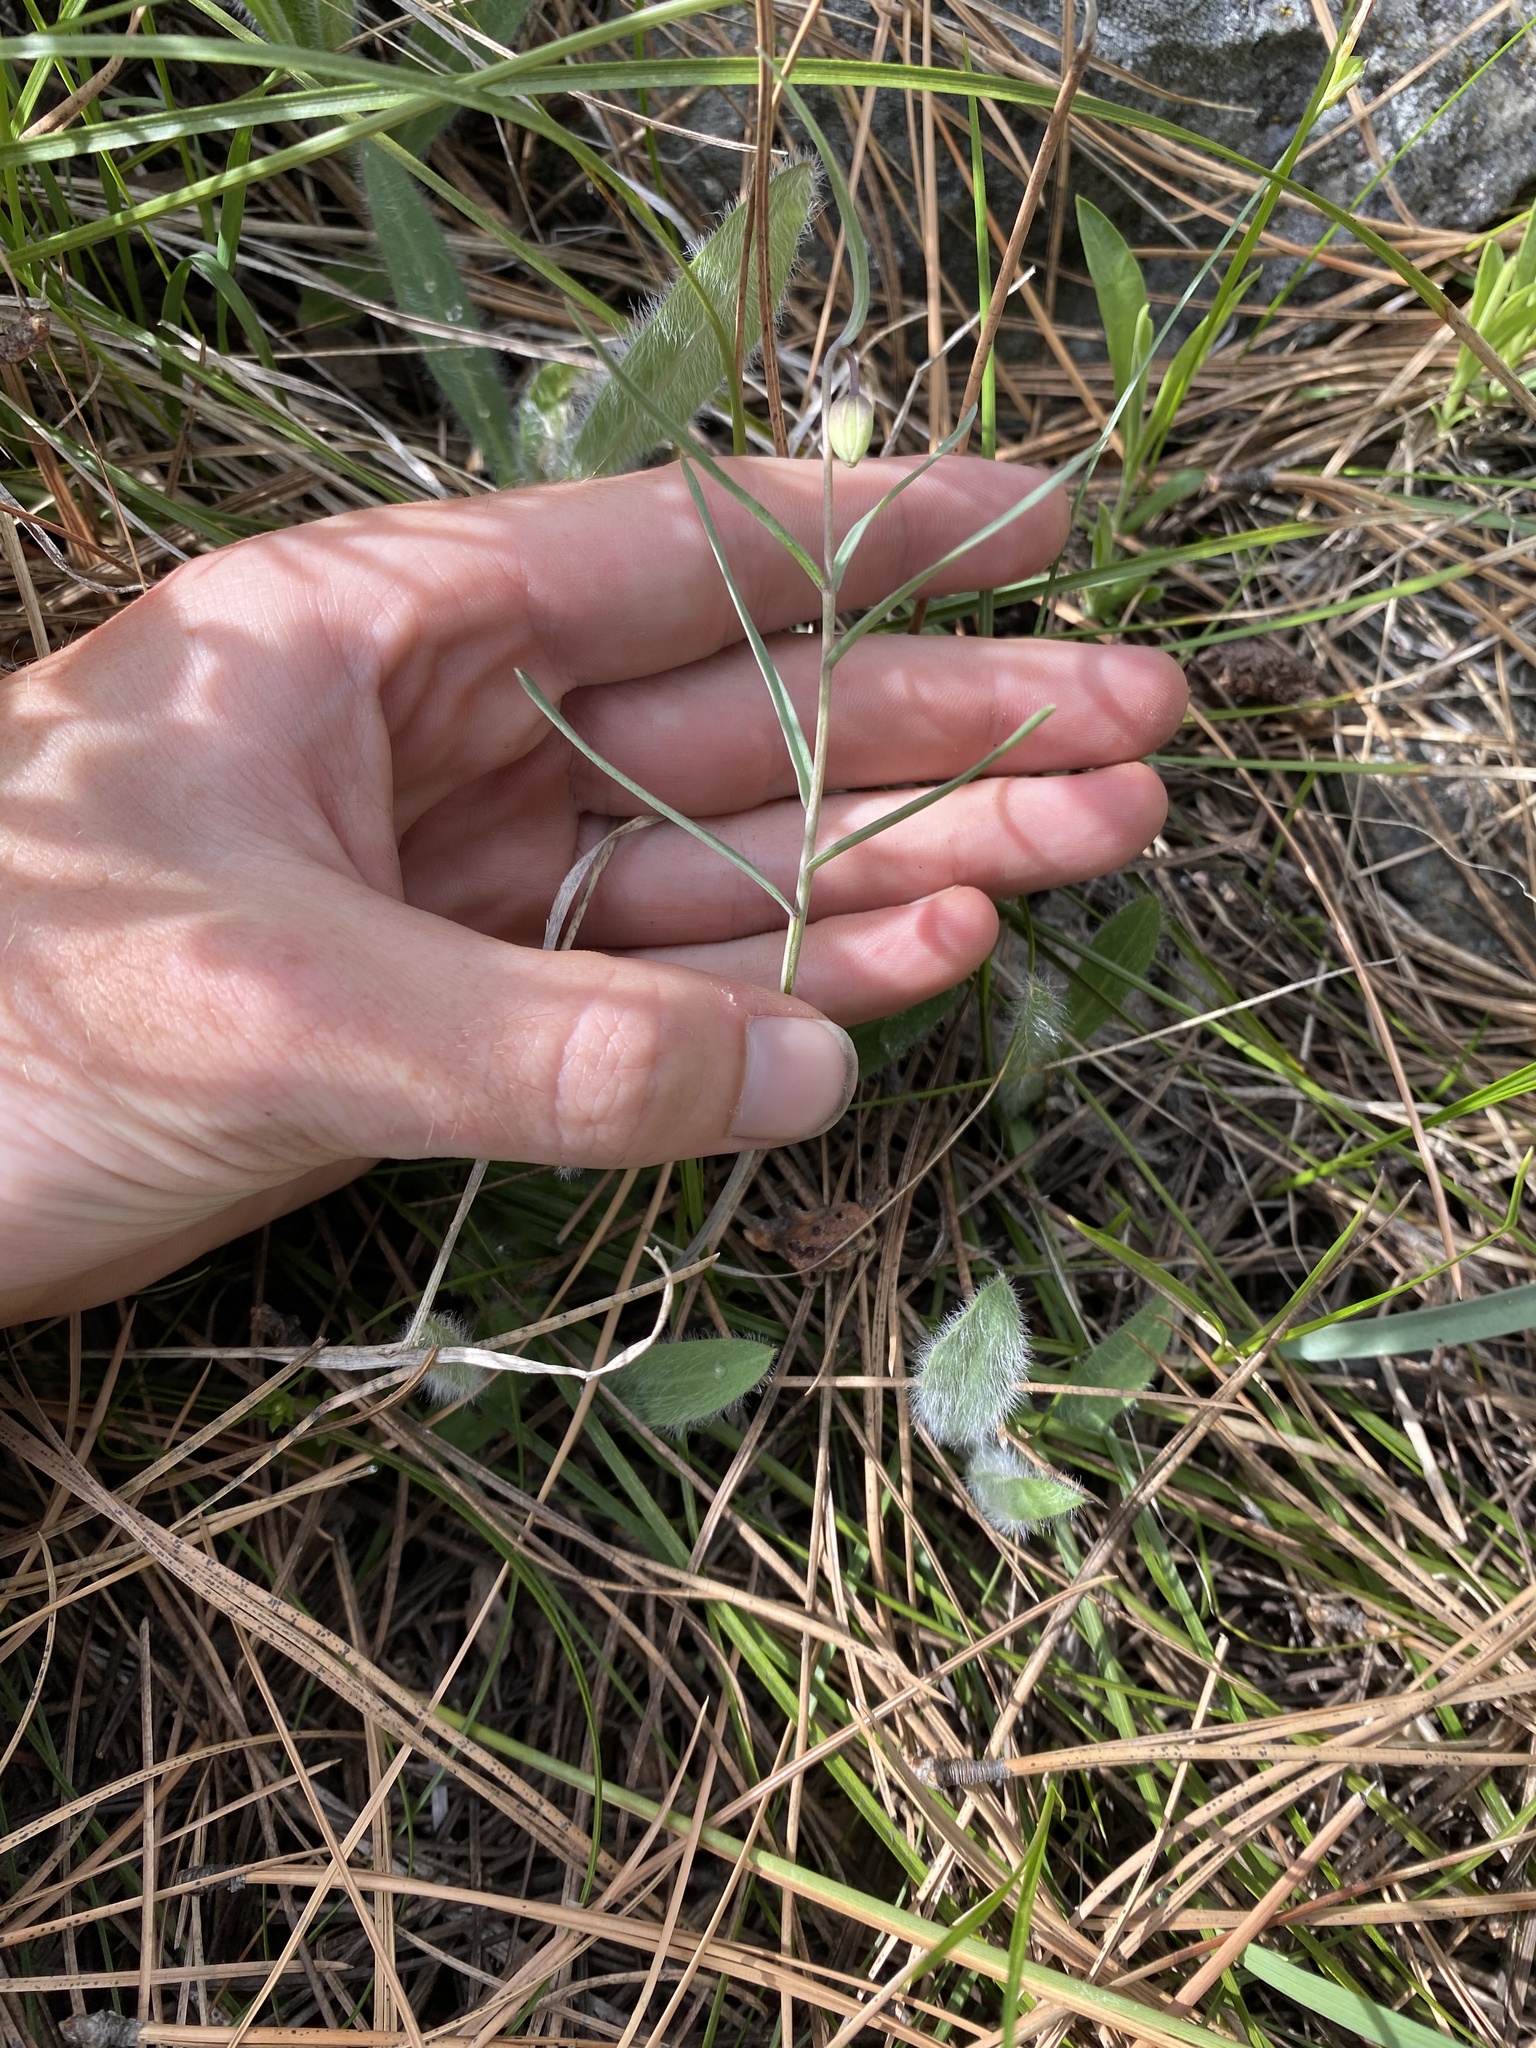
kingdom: Plantae
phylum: Tracheophyta
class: Liliopsida
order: Liliales
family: Liliaceae
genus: Fritillaria
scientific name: Fritillaria atropurpurea
